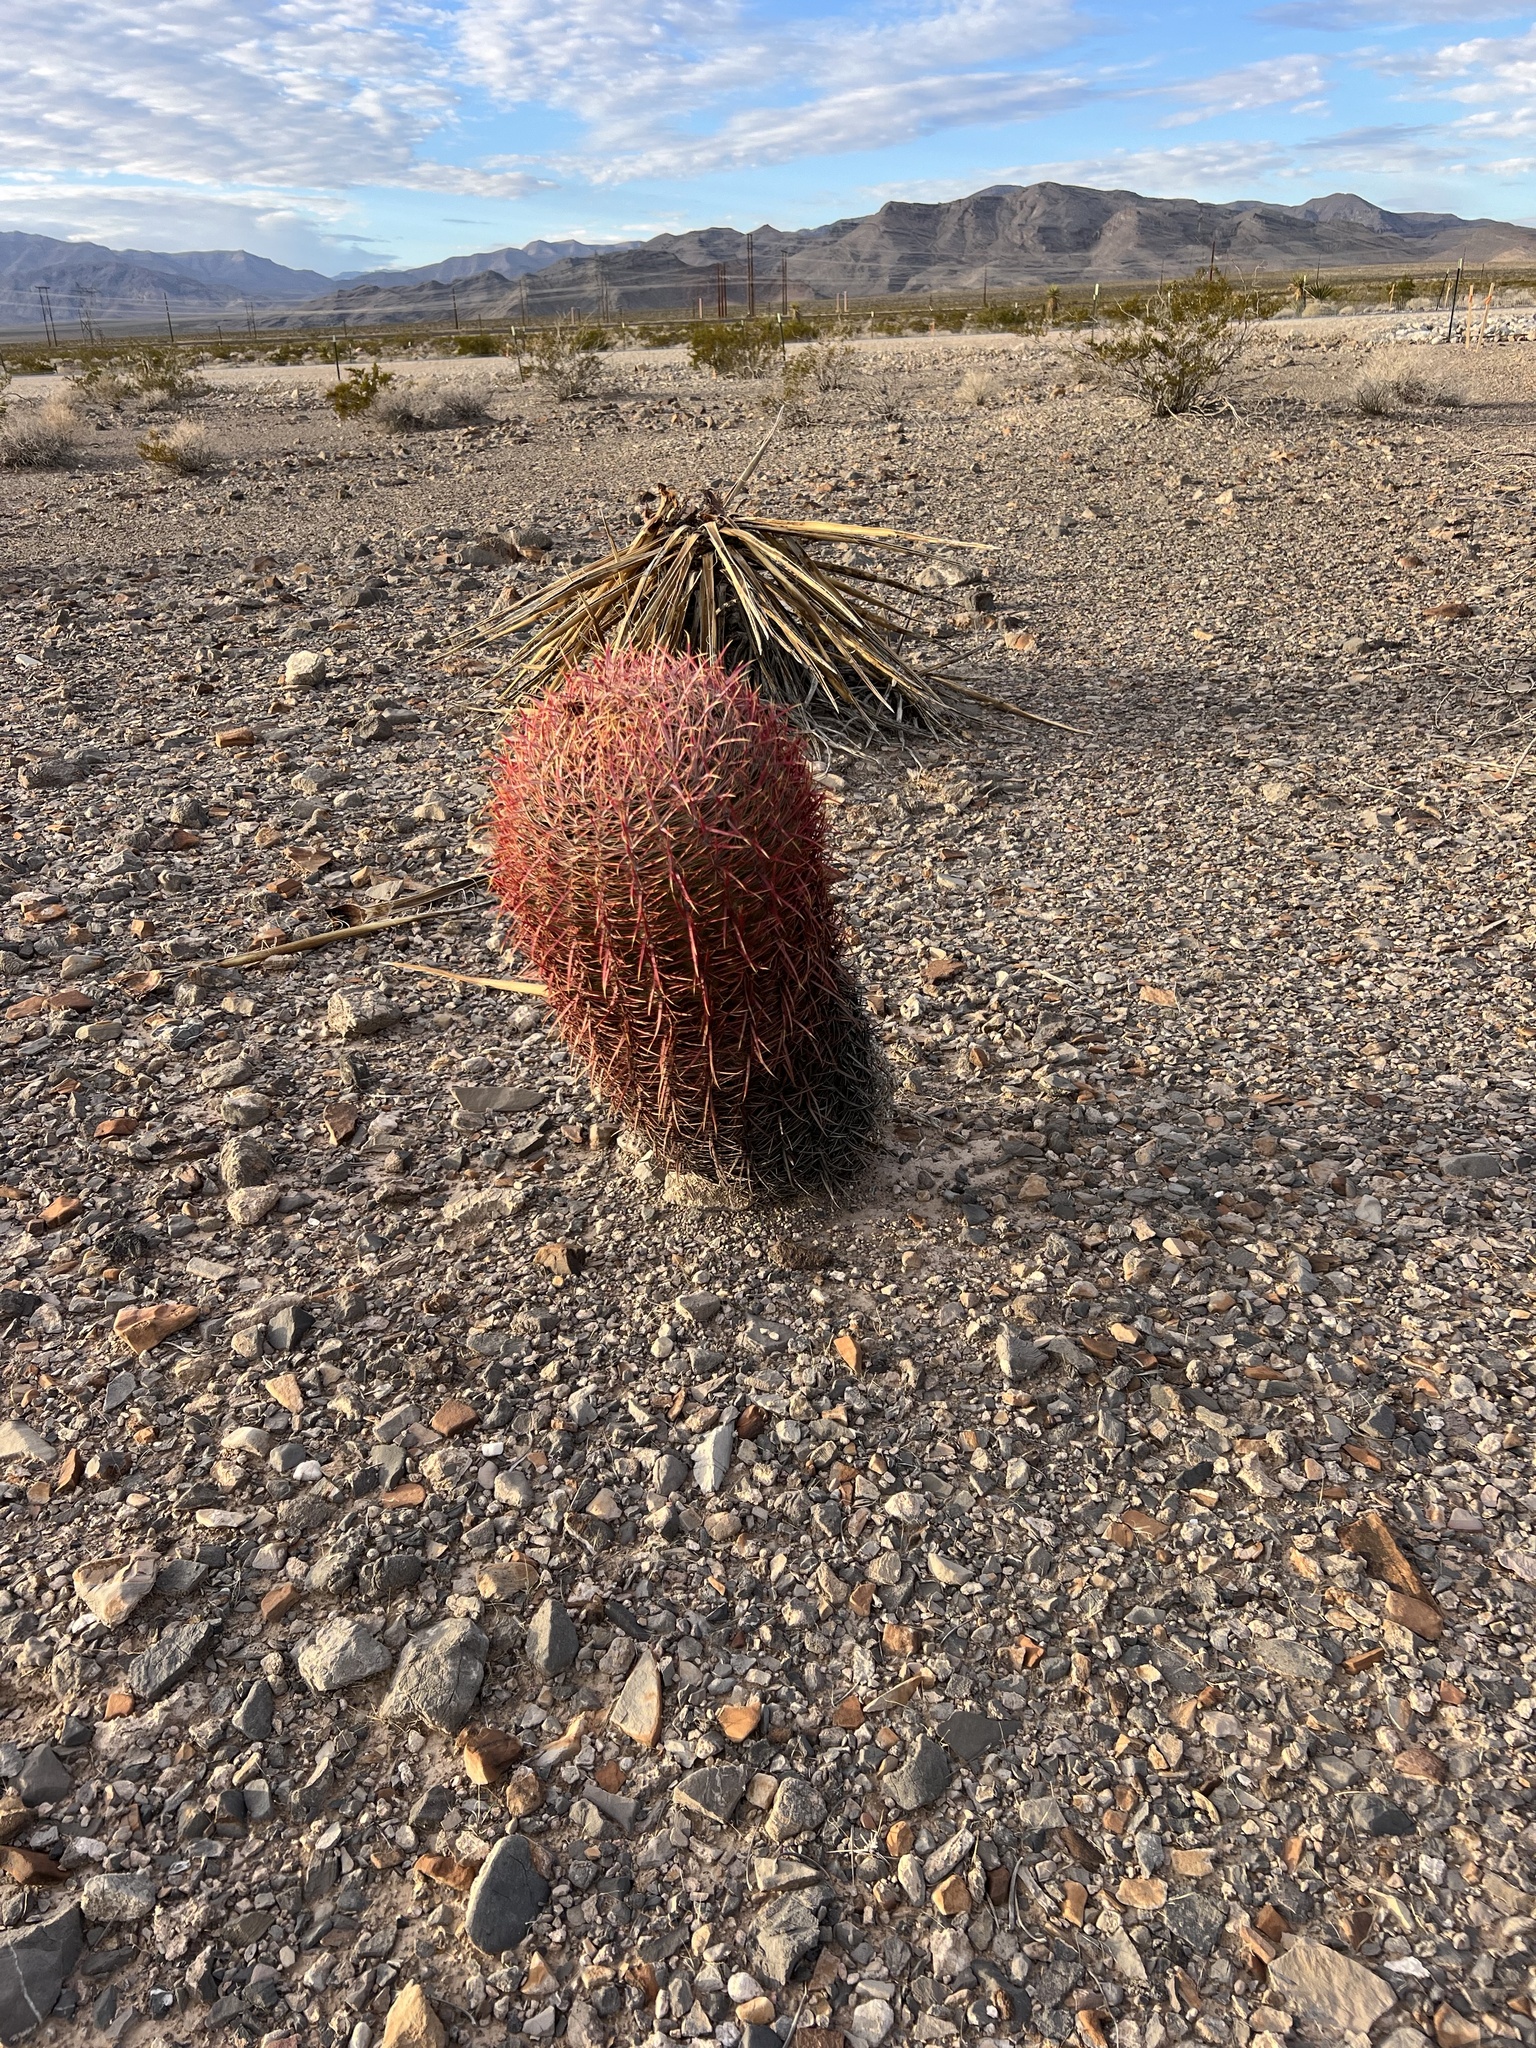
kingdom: Plantae
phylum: Tracheophyta
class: Magnoliopsida
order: Caryophyllales
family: Cactaceae
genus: Ferocactus
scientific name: Ferocactus cylindraceus
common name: California barrel cactus
